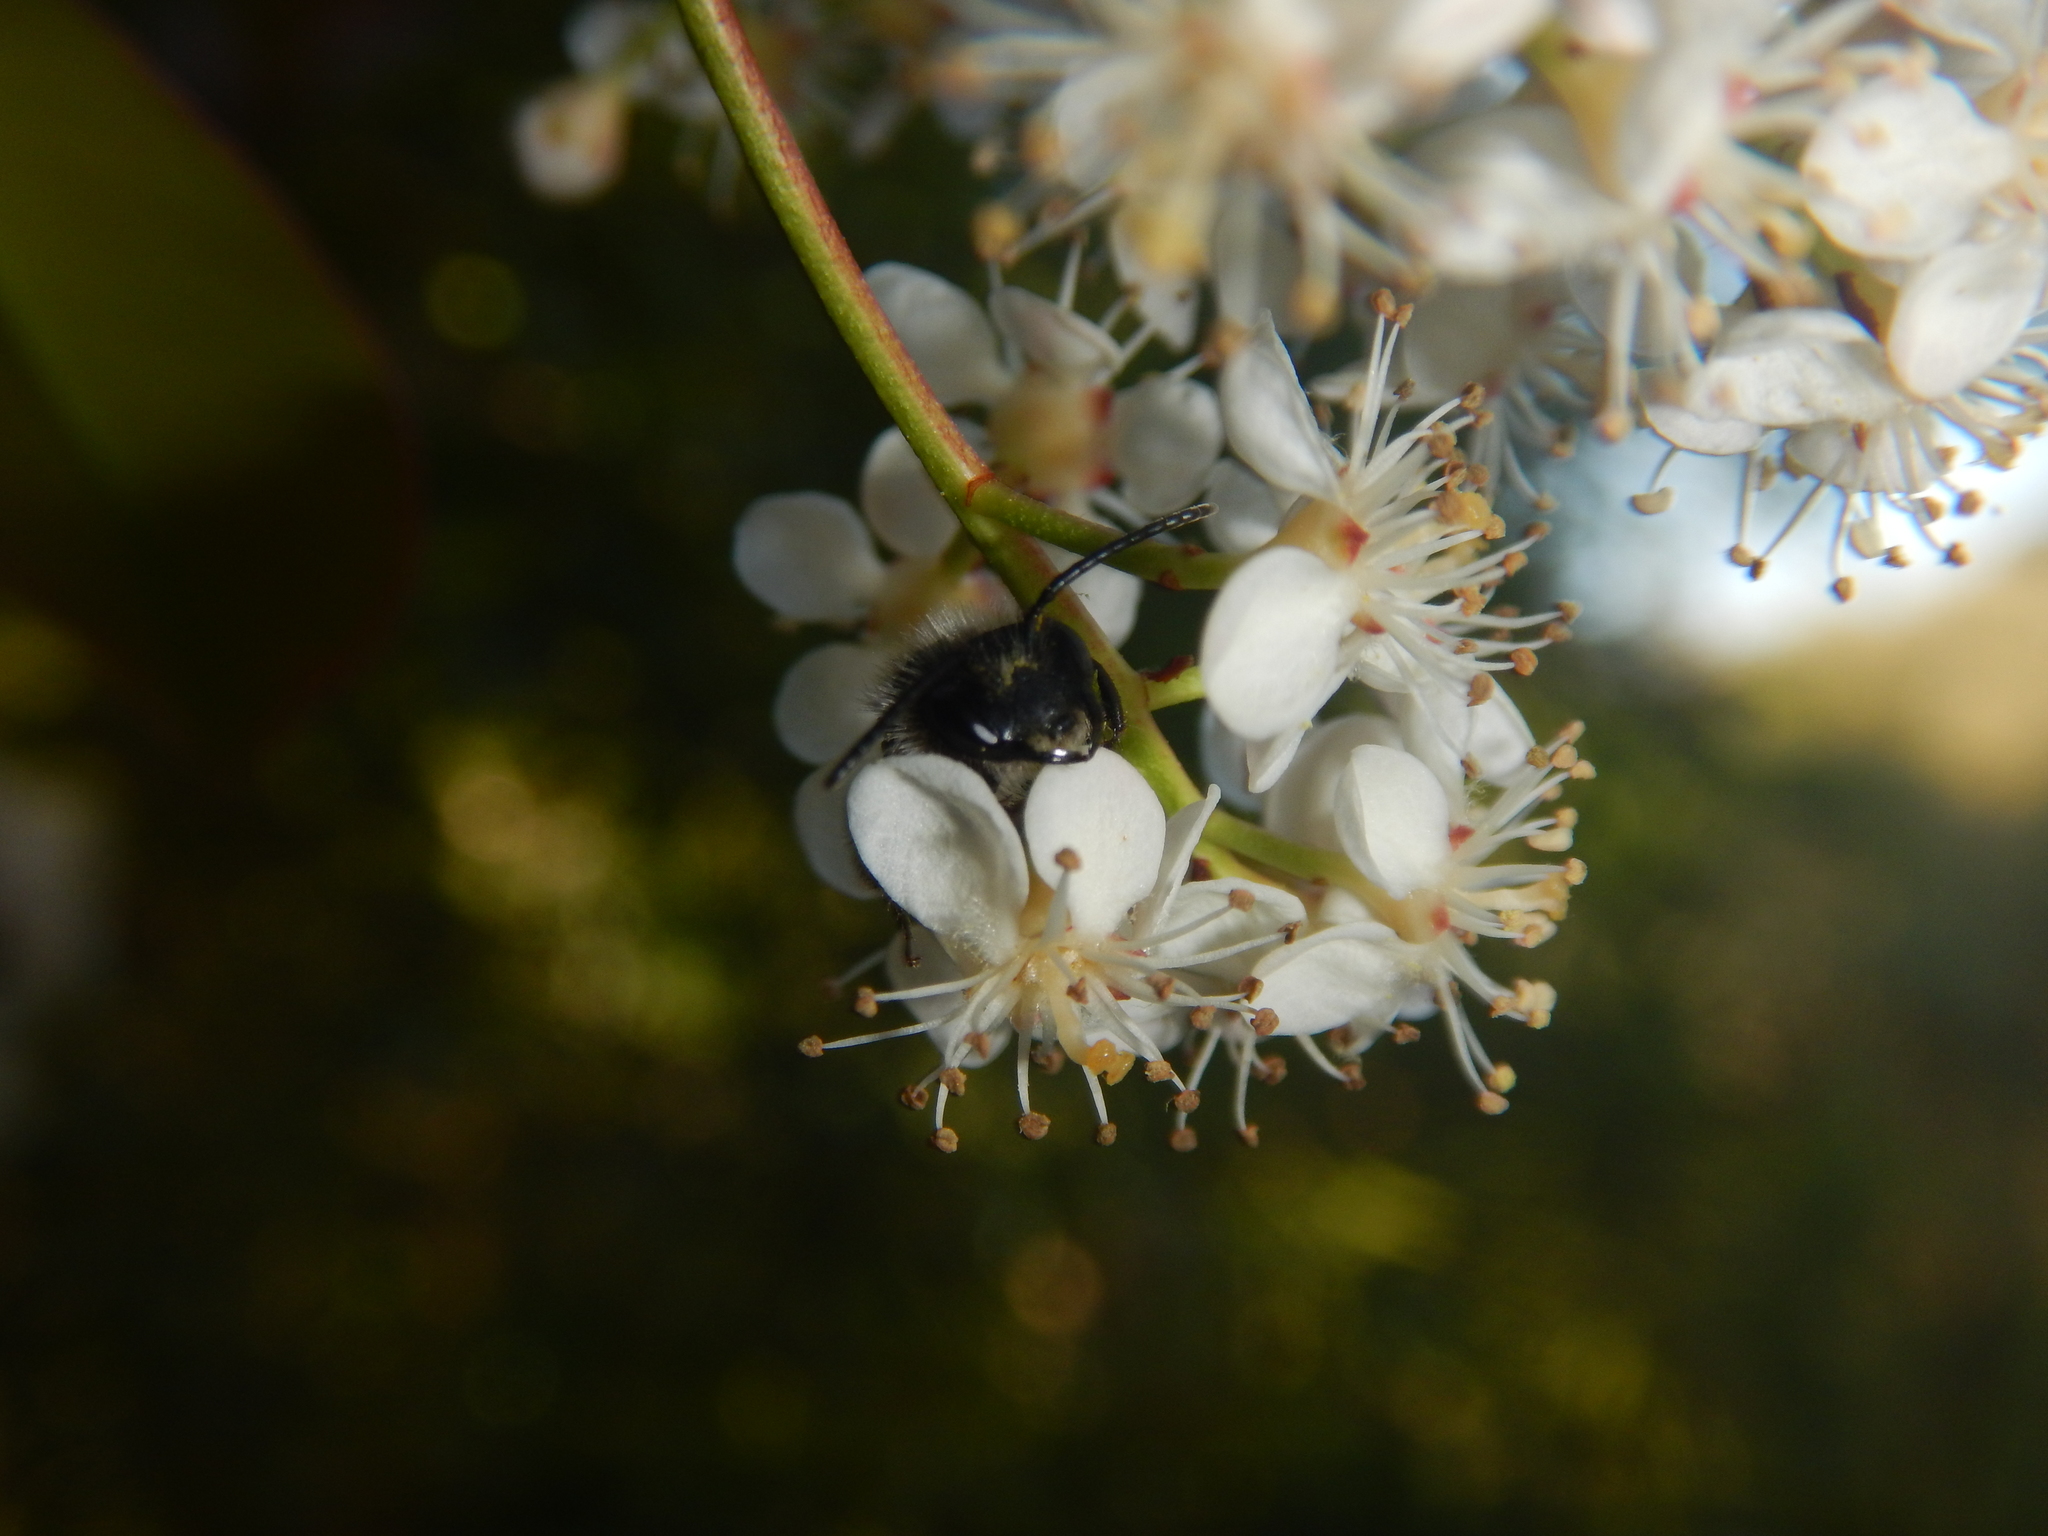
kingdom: Animalia
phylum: Arthropoda
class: Insecta
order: Hymenoptera
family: Apidae
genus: Apis
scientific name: Apis mellifera
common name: Honey bee
